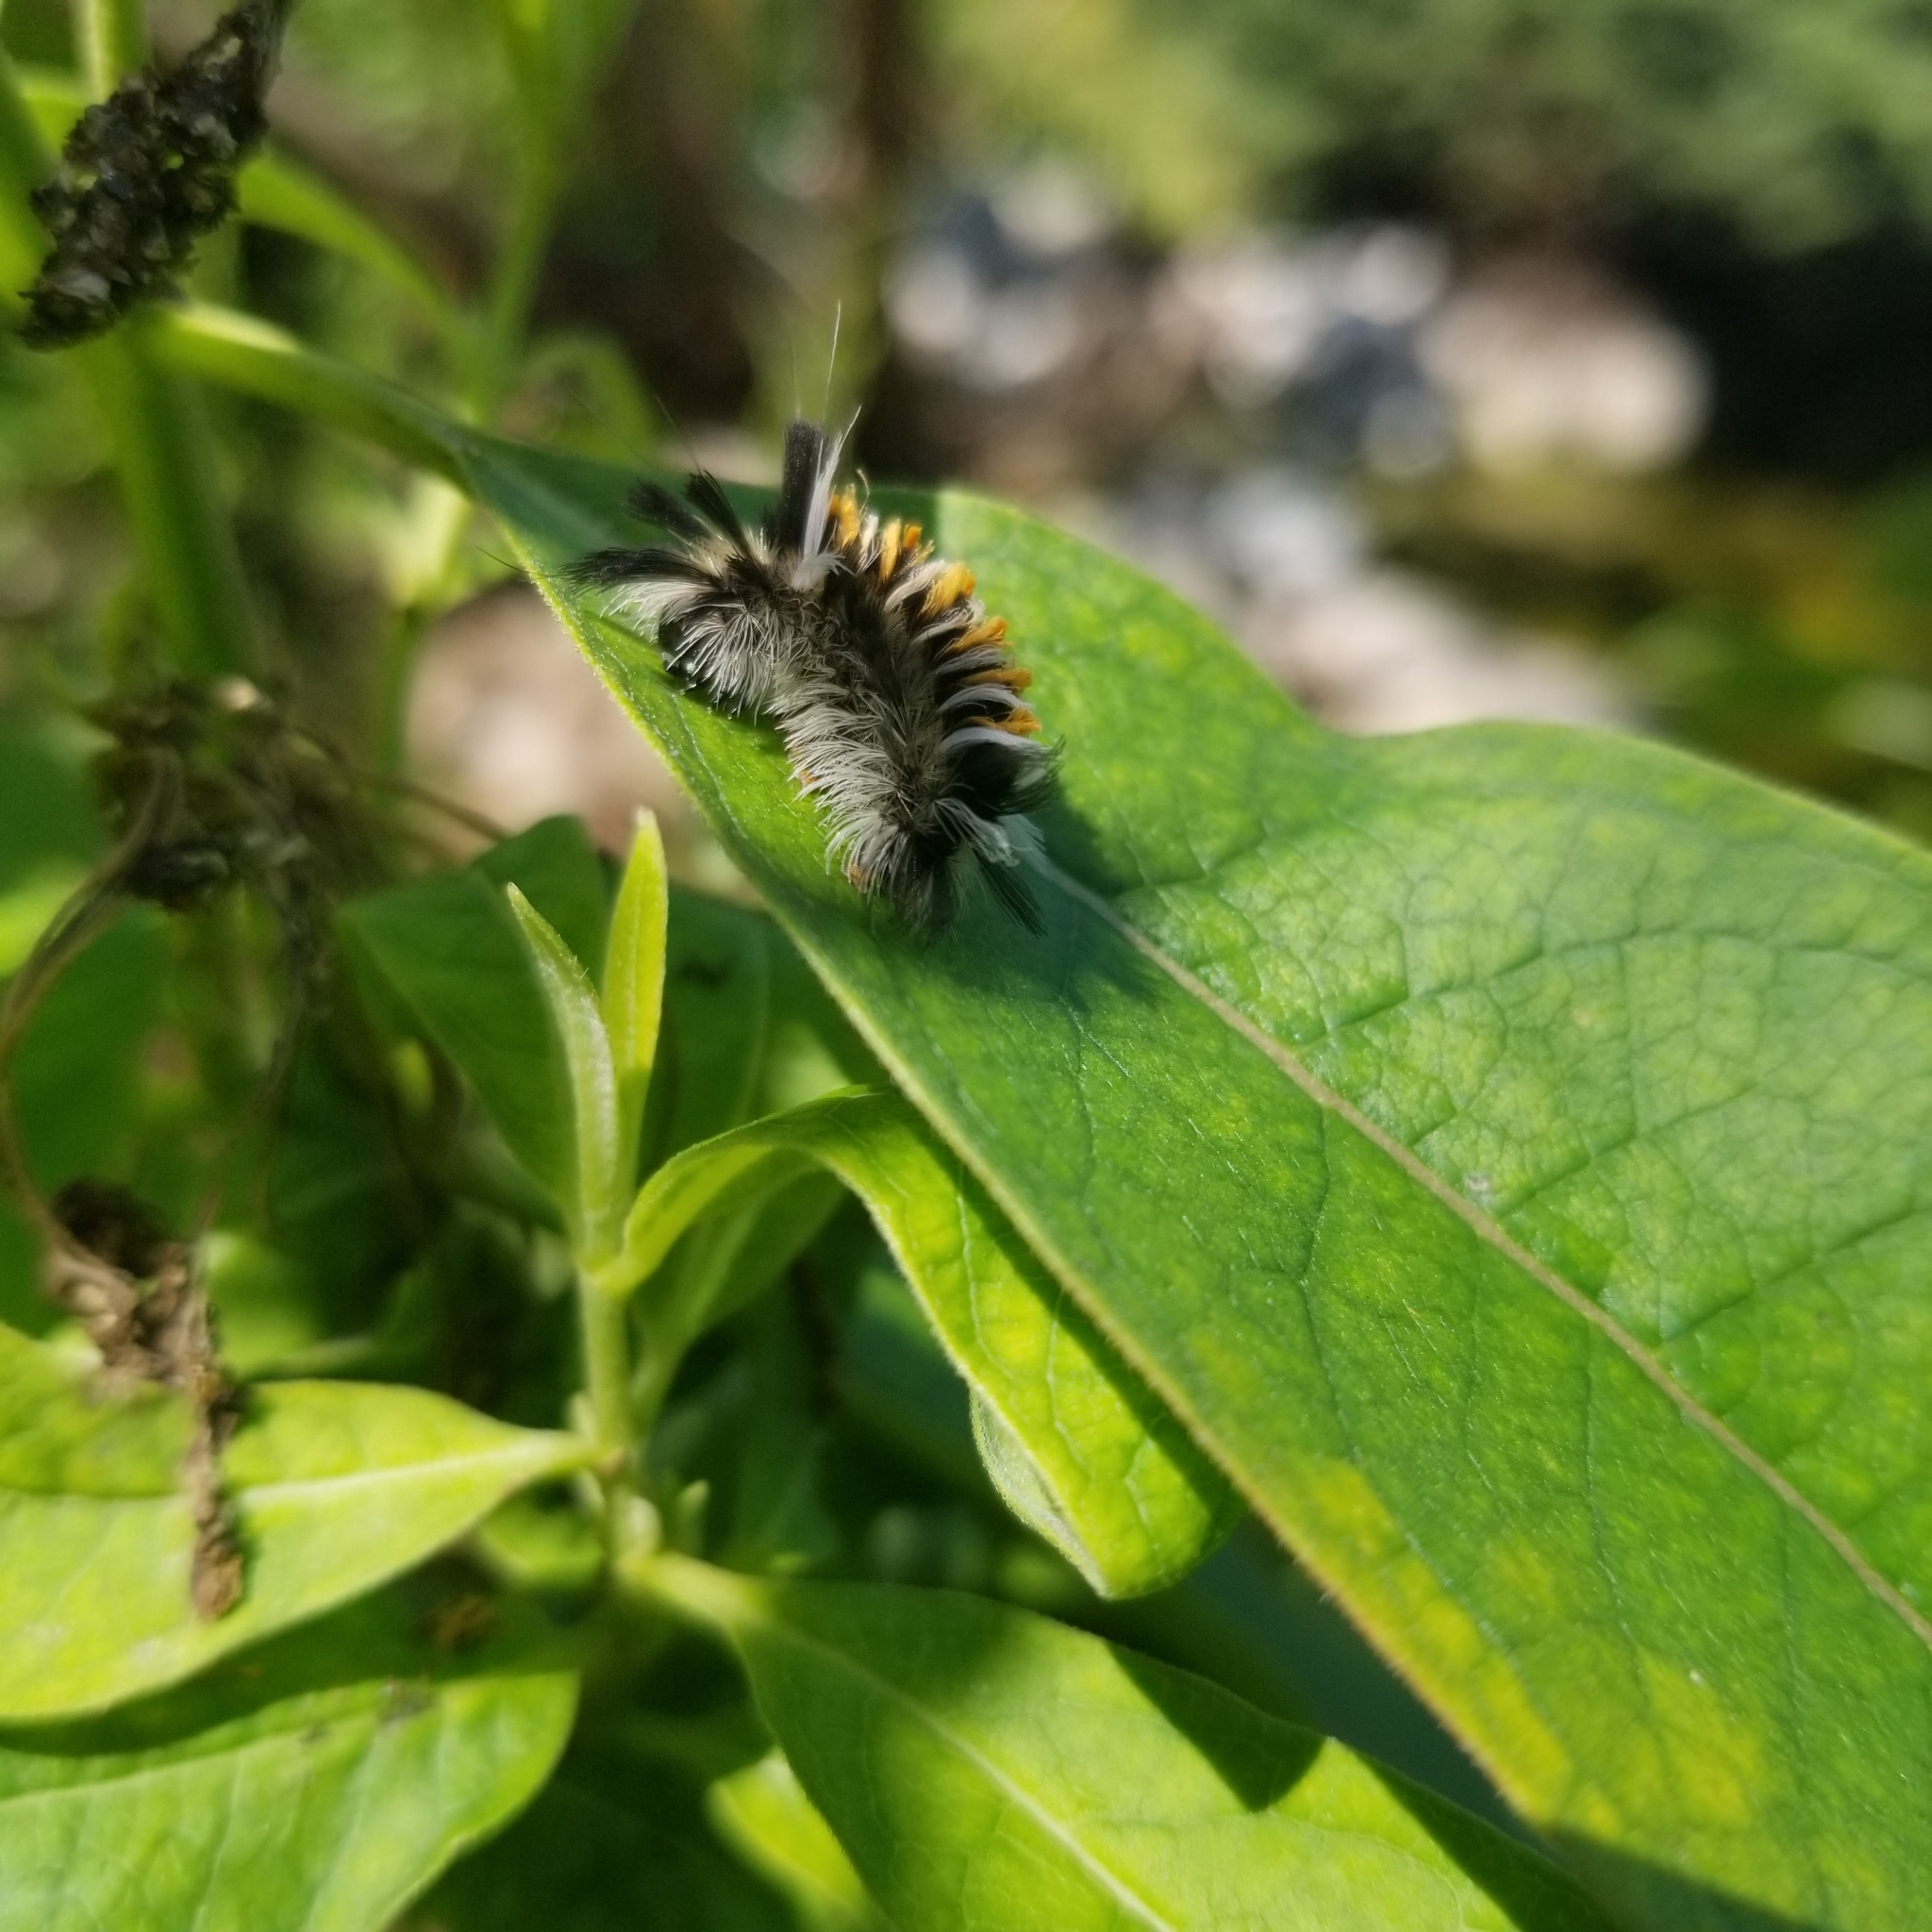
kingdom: Animalia
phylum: Arthropoda
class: Insecta
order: Lepidoptera
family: Erebidae
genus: Euchaetes
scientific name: Euchaetes egle
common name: Milkweed tussock moth
